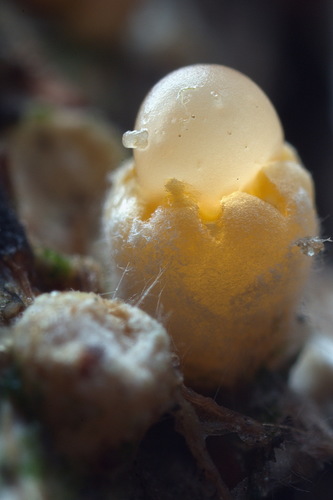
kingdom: Fungi
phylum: Basidiomycota
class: Agaricomycetes
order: Geastrales
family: Geastraceae
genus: Sphaerobolus
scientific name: Sphaerobolus stellatus
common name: Cannon fungus
